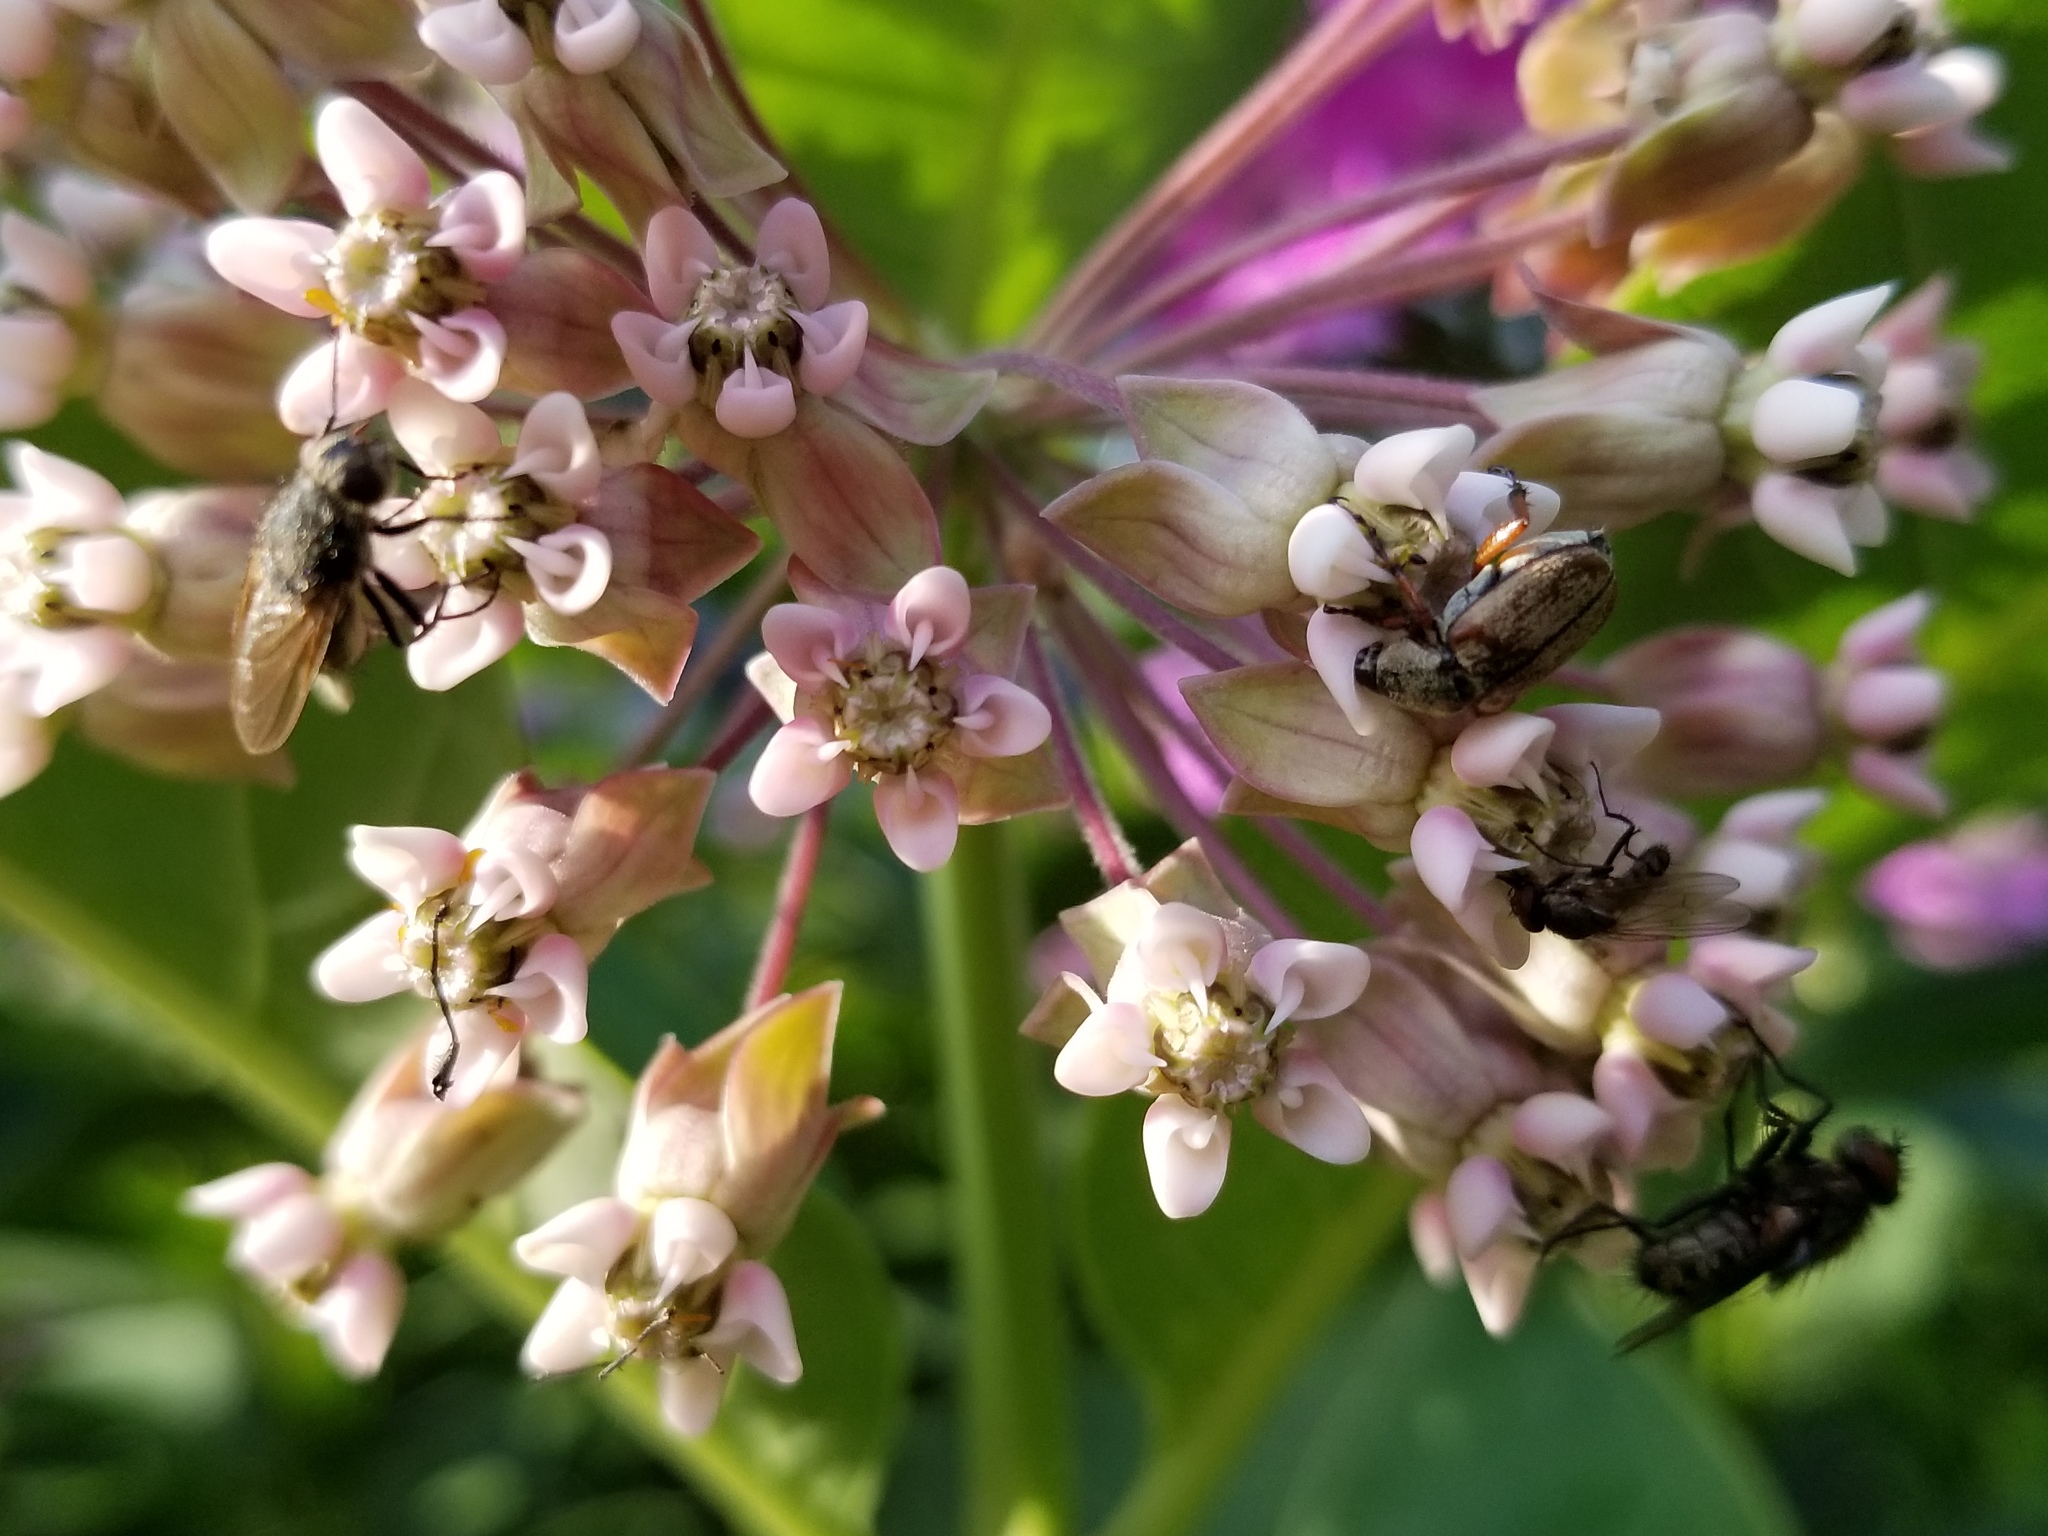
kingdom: Plantae
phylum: Tracheophyta
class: Magnoliopsida
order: Gentianales
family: Apocynaceae
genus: Asclepias
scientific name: Asclepias syriaca
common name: Common milkweed
